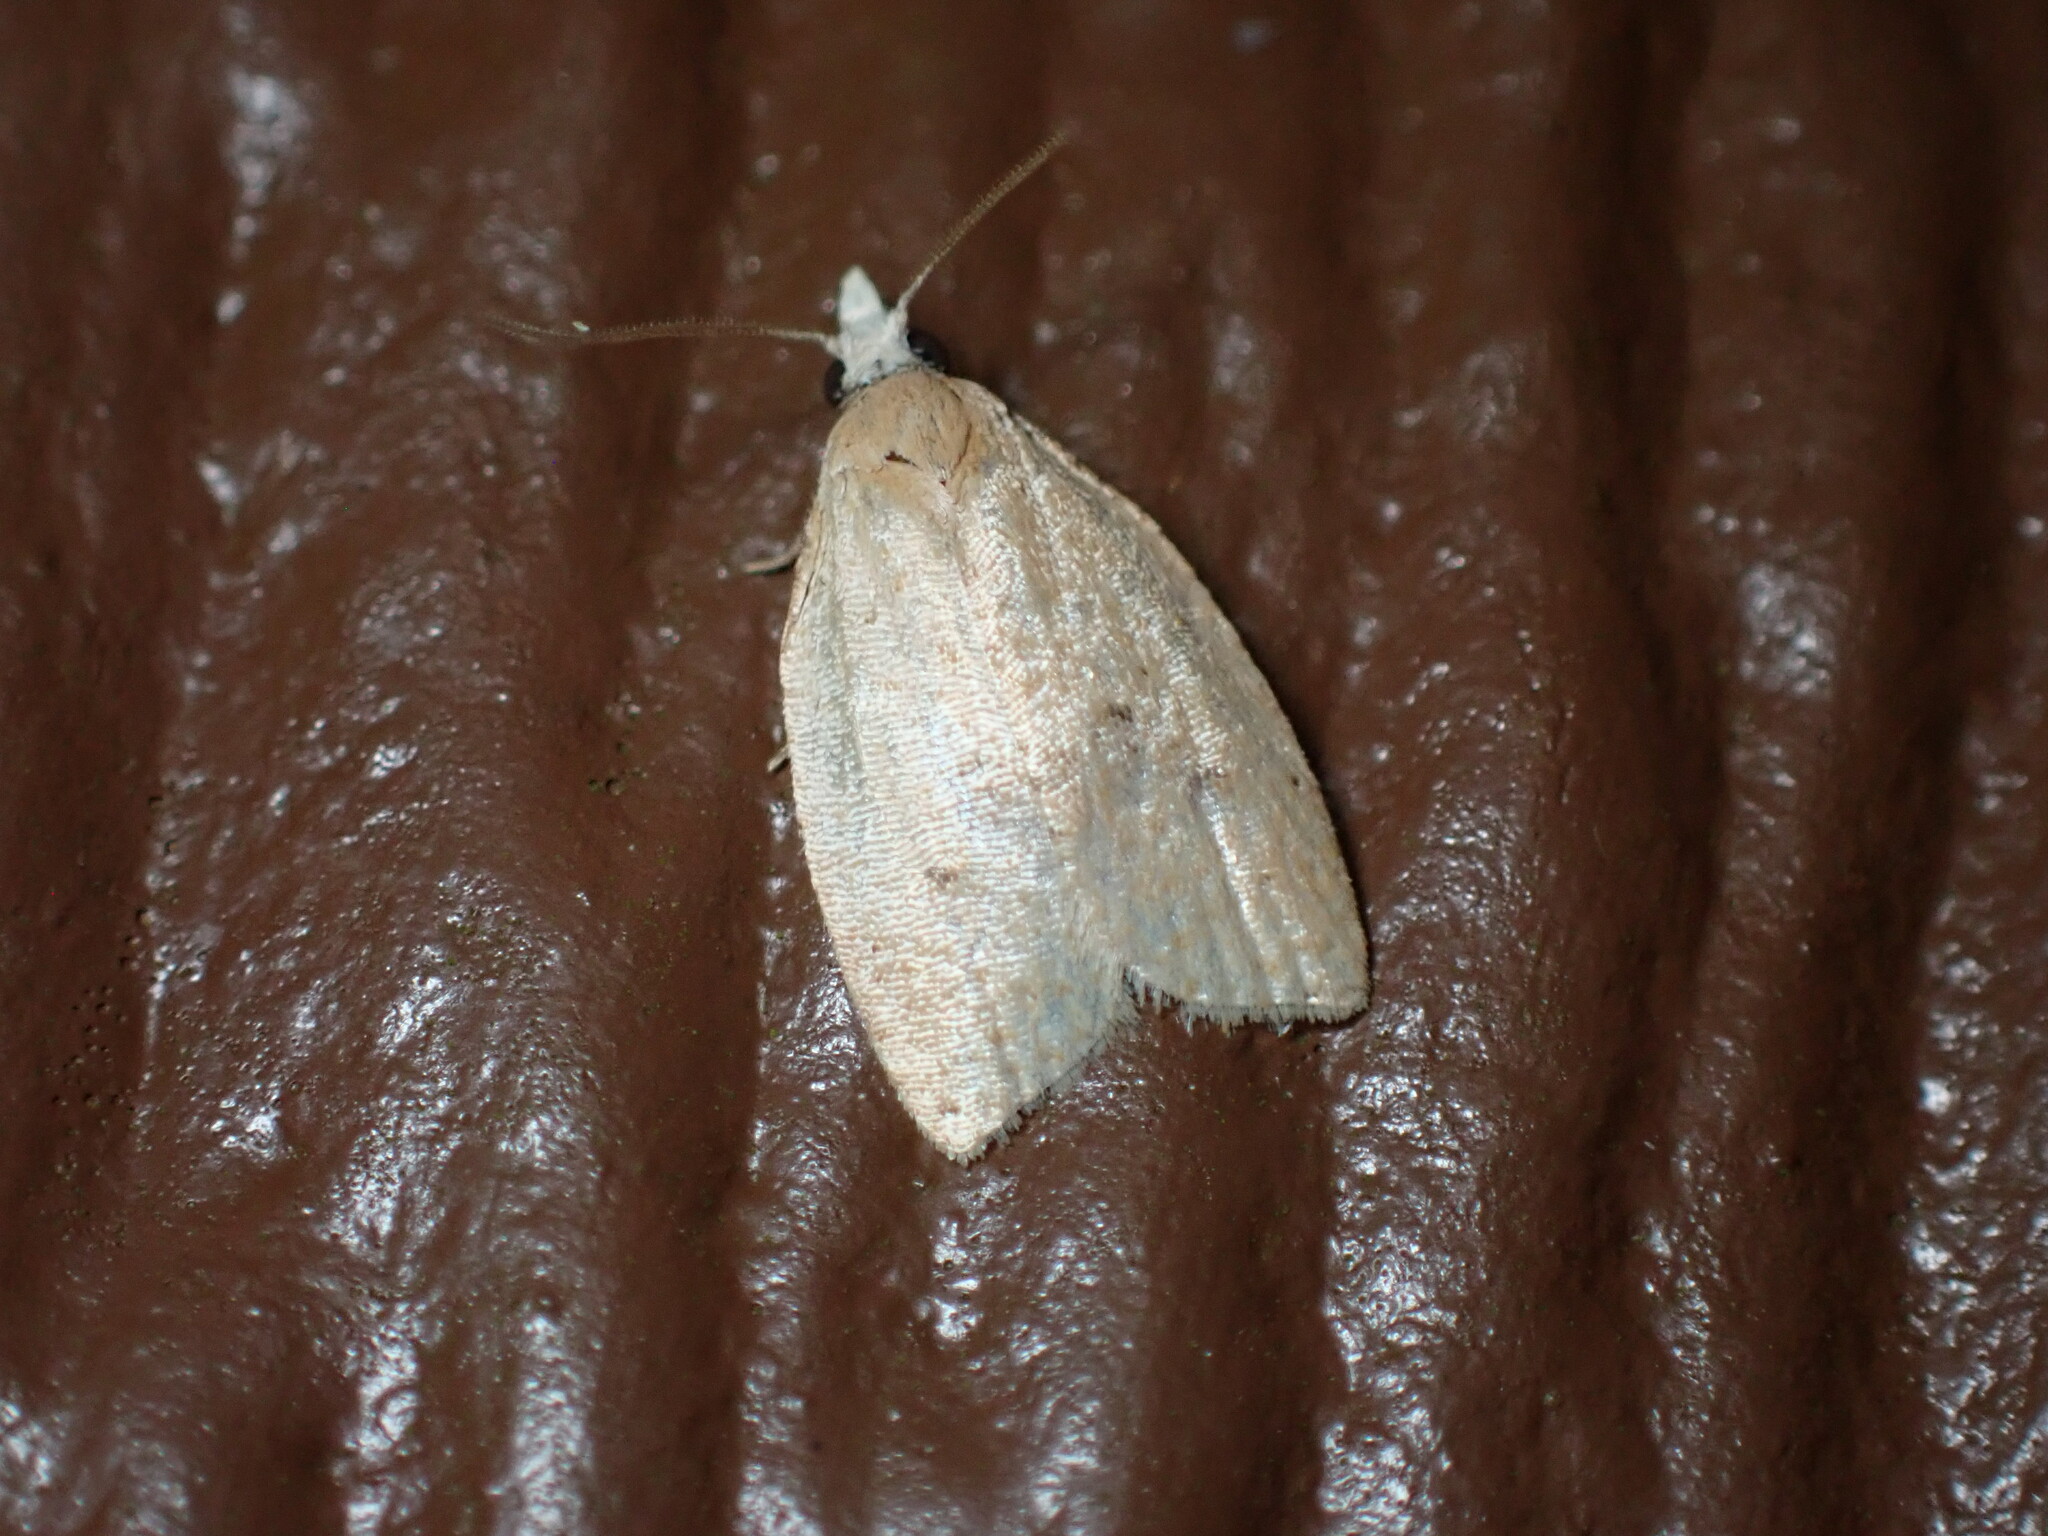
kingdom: Animalia
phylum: Arthropoda
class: Insecta
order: Lepidoptera
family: Tortricidae
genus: Coelostathma
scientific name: Coelostathma discopunctana
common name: Batman moth
